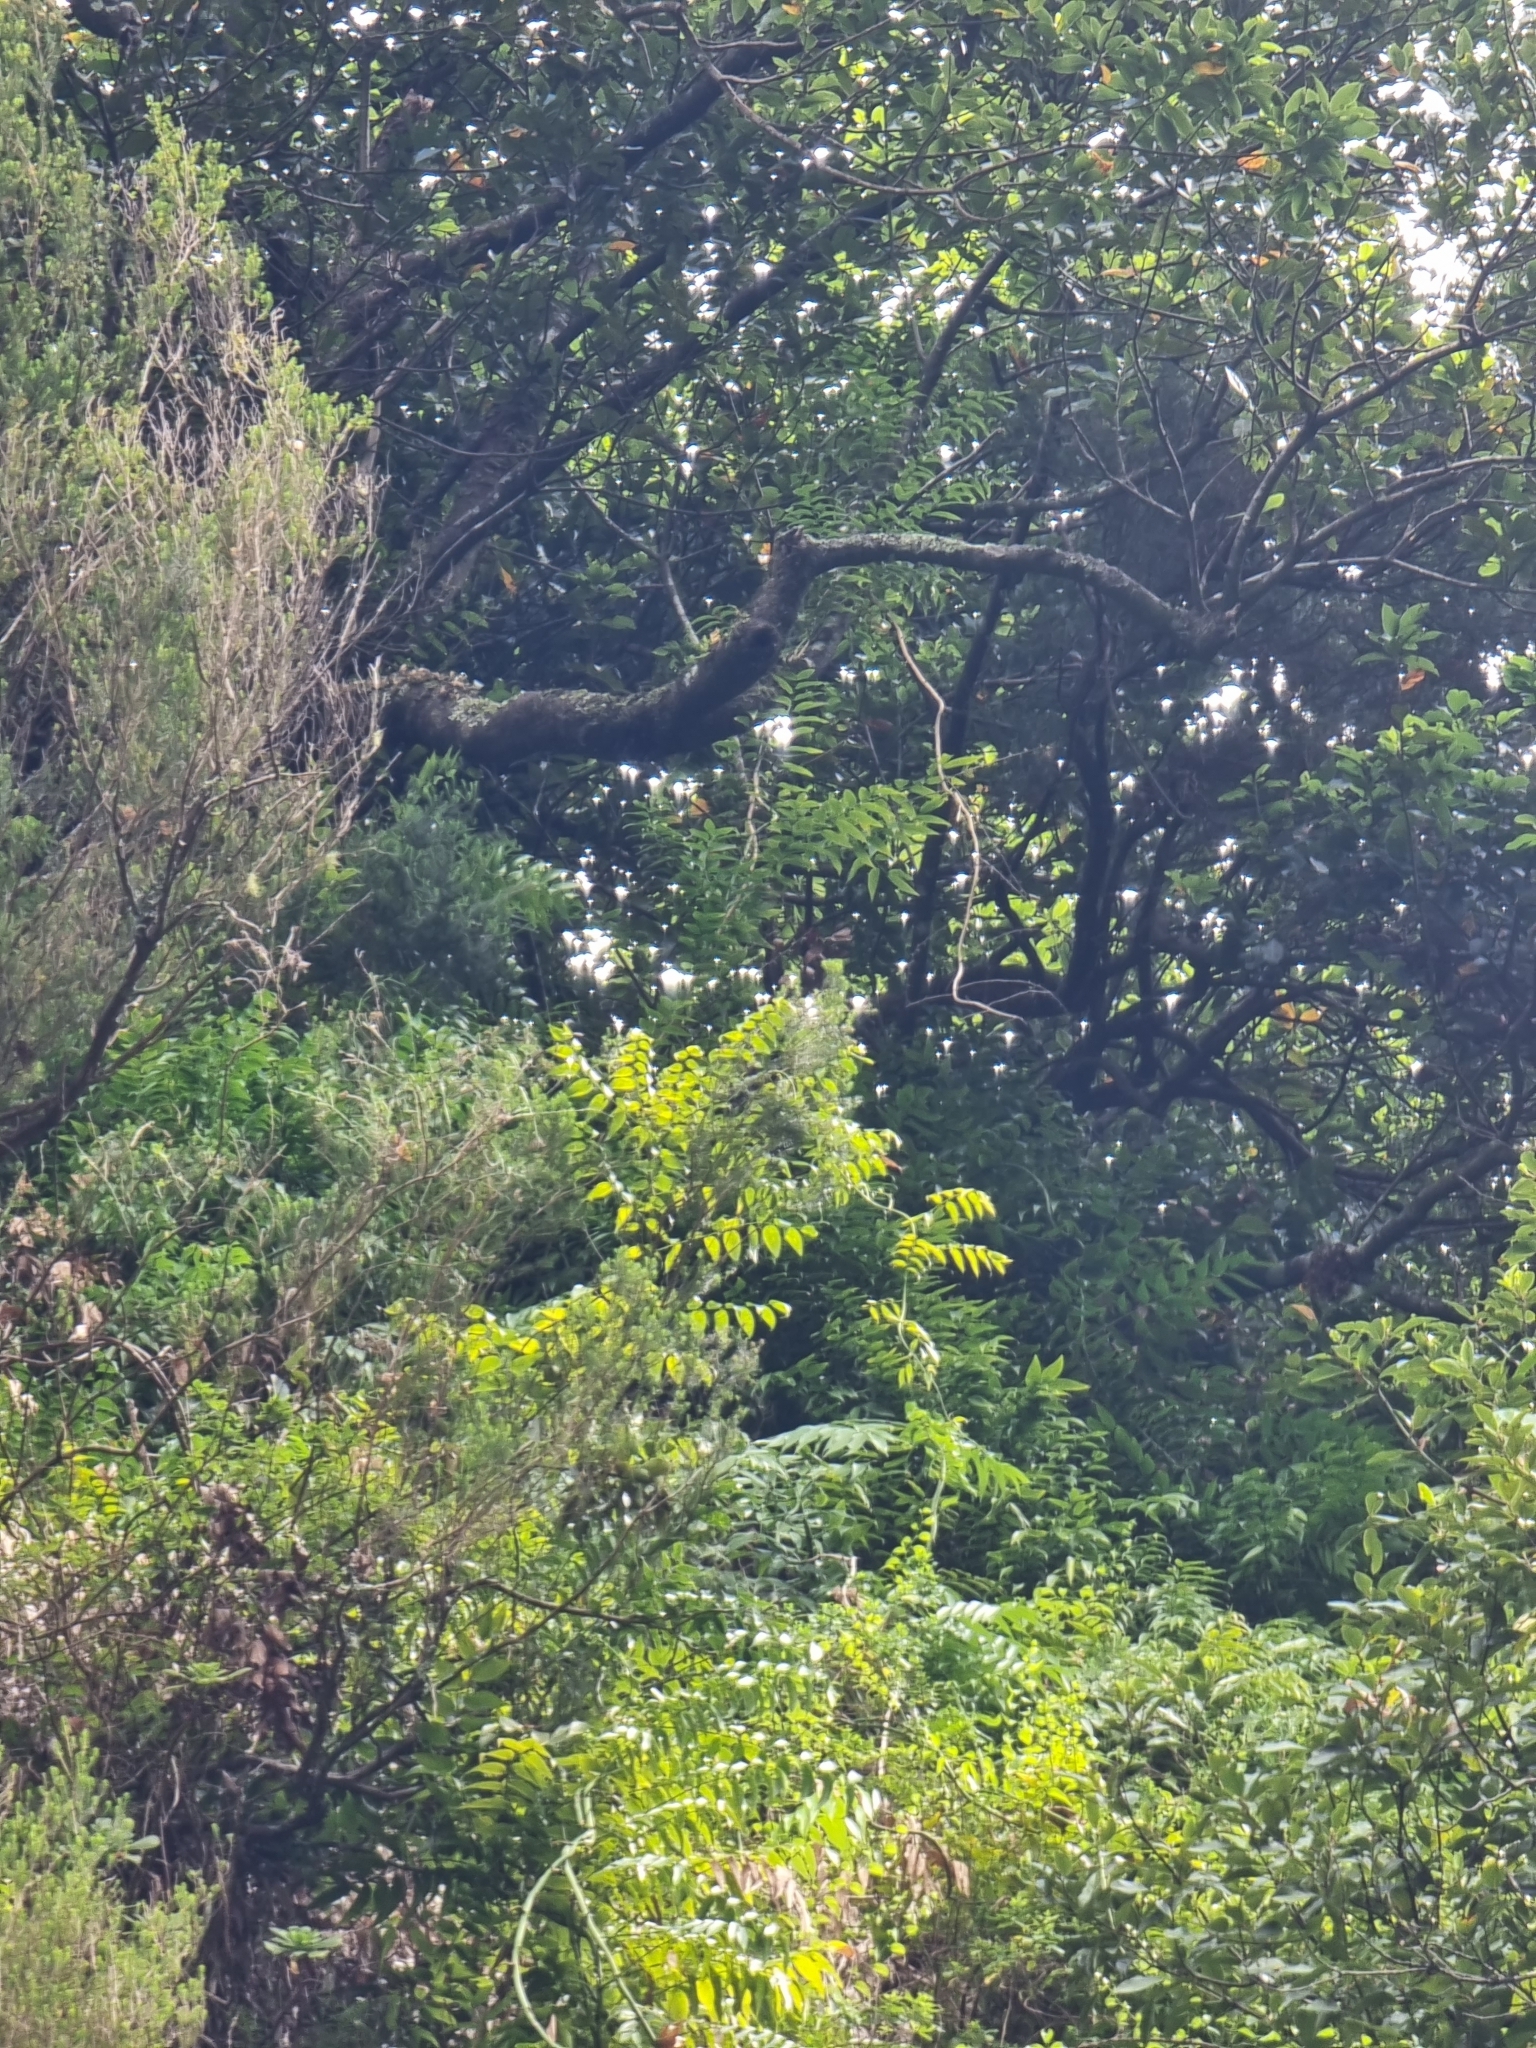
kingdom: Plantae
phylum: Tracheophyta
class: Liliopsida
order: Asparagales
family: Asparagaceae
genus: Semele
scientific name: Semele androgyna
